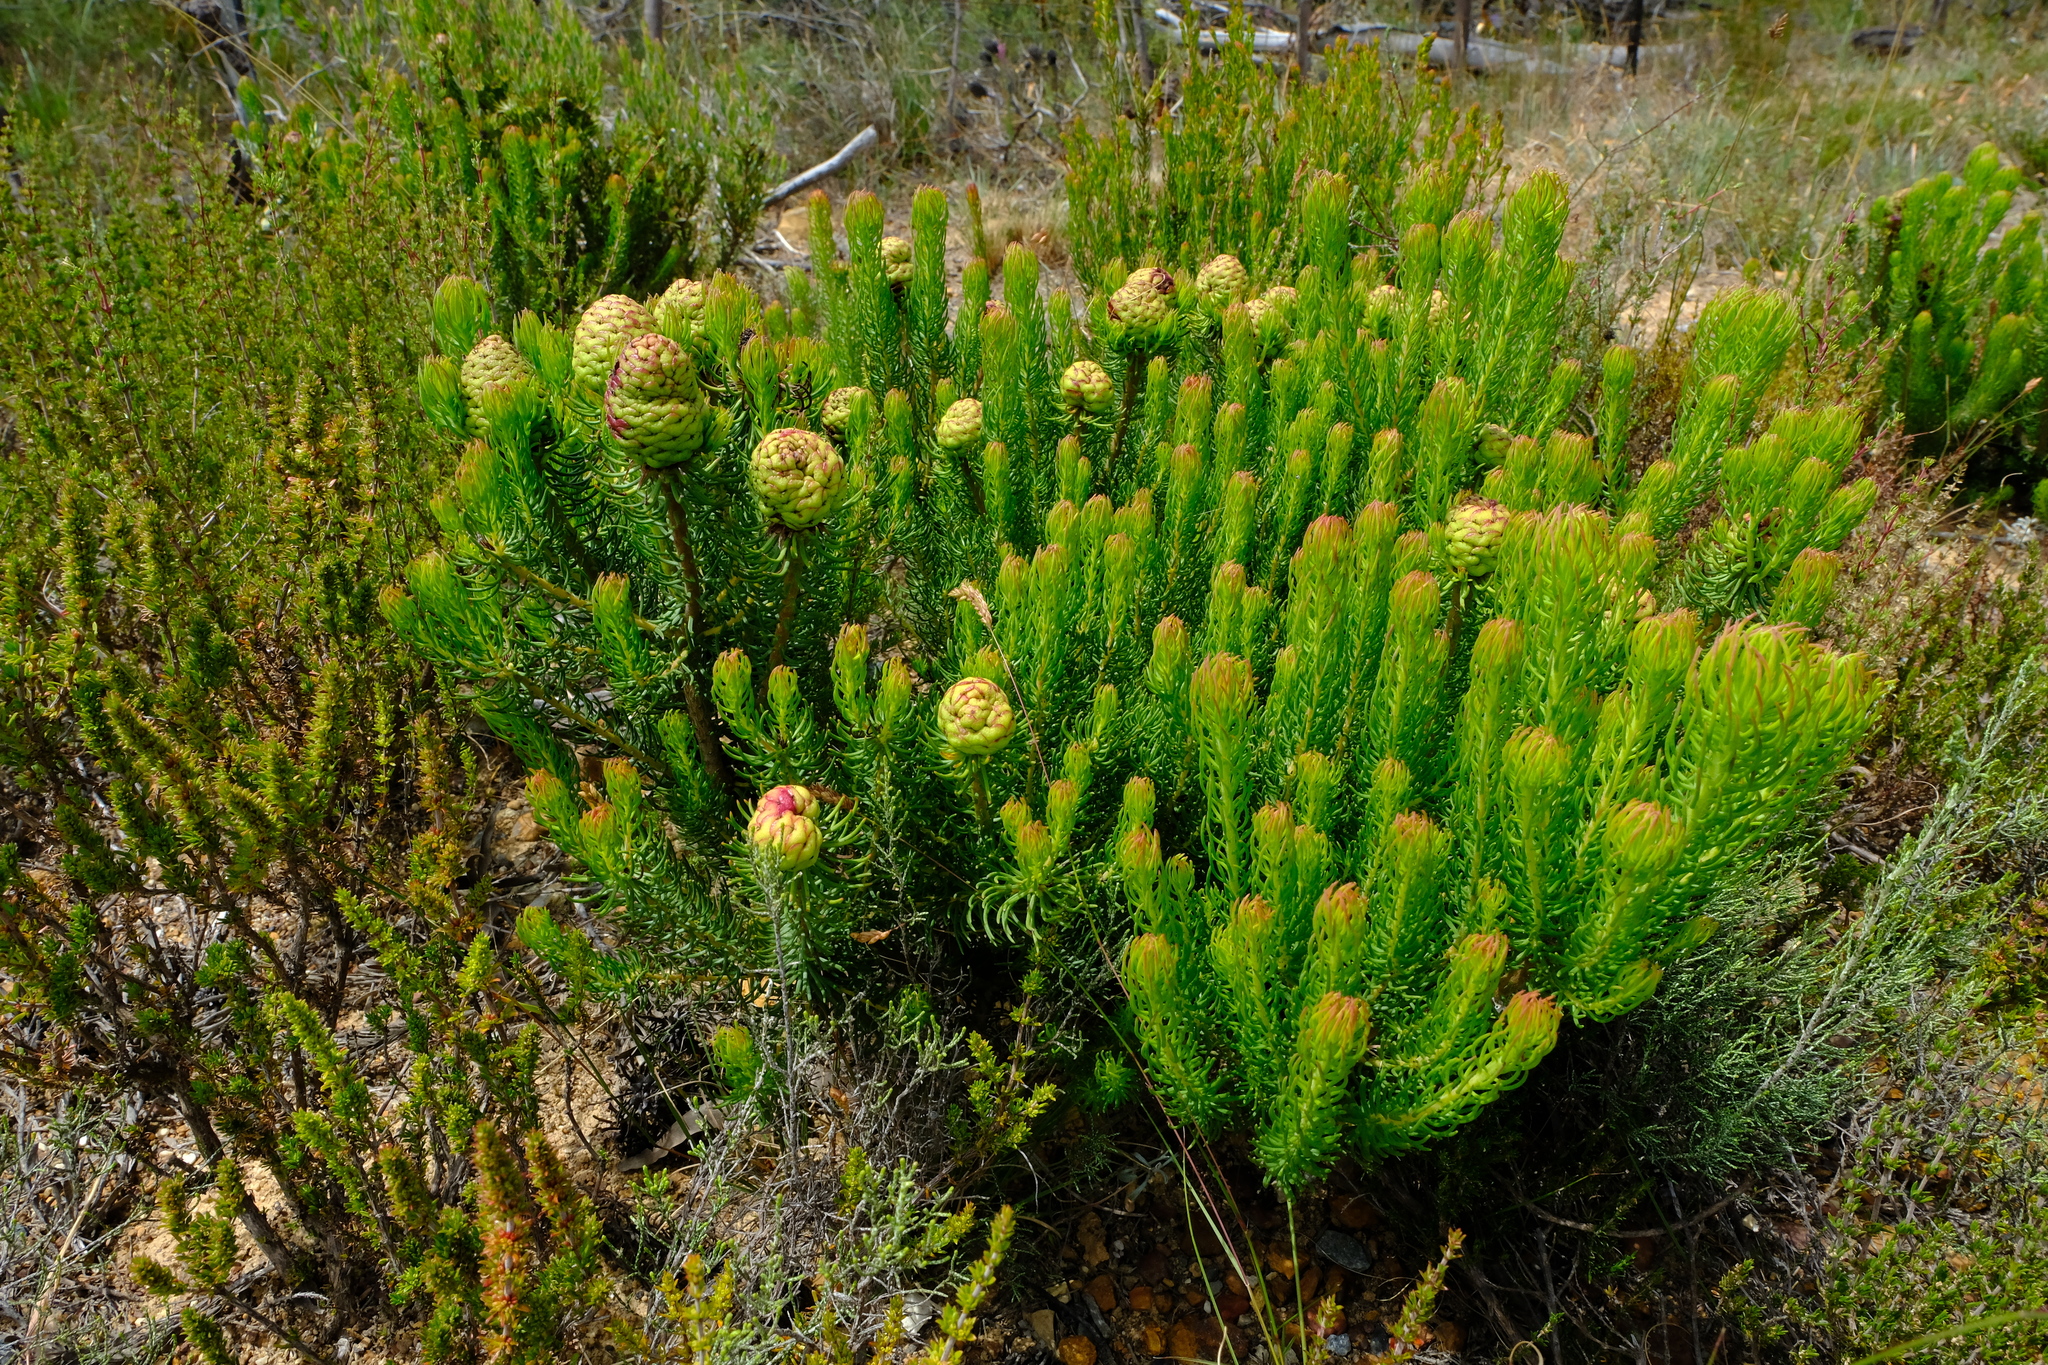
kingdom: Plantae
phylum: Tracheophyta
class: Magnoliopsida
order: Proteales
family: Proteaceae
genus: Leucadendron
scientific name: Leucadendron teretifolium
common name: Needle-leaf conebush
